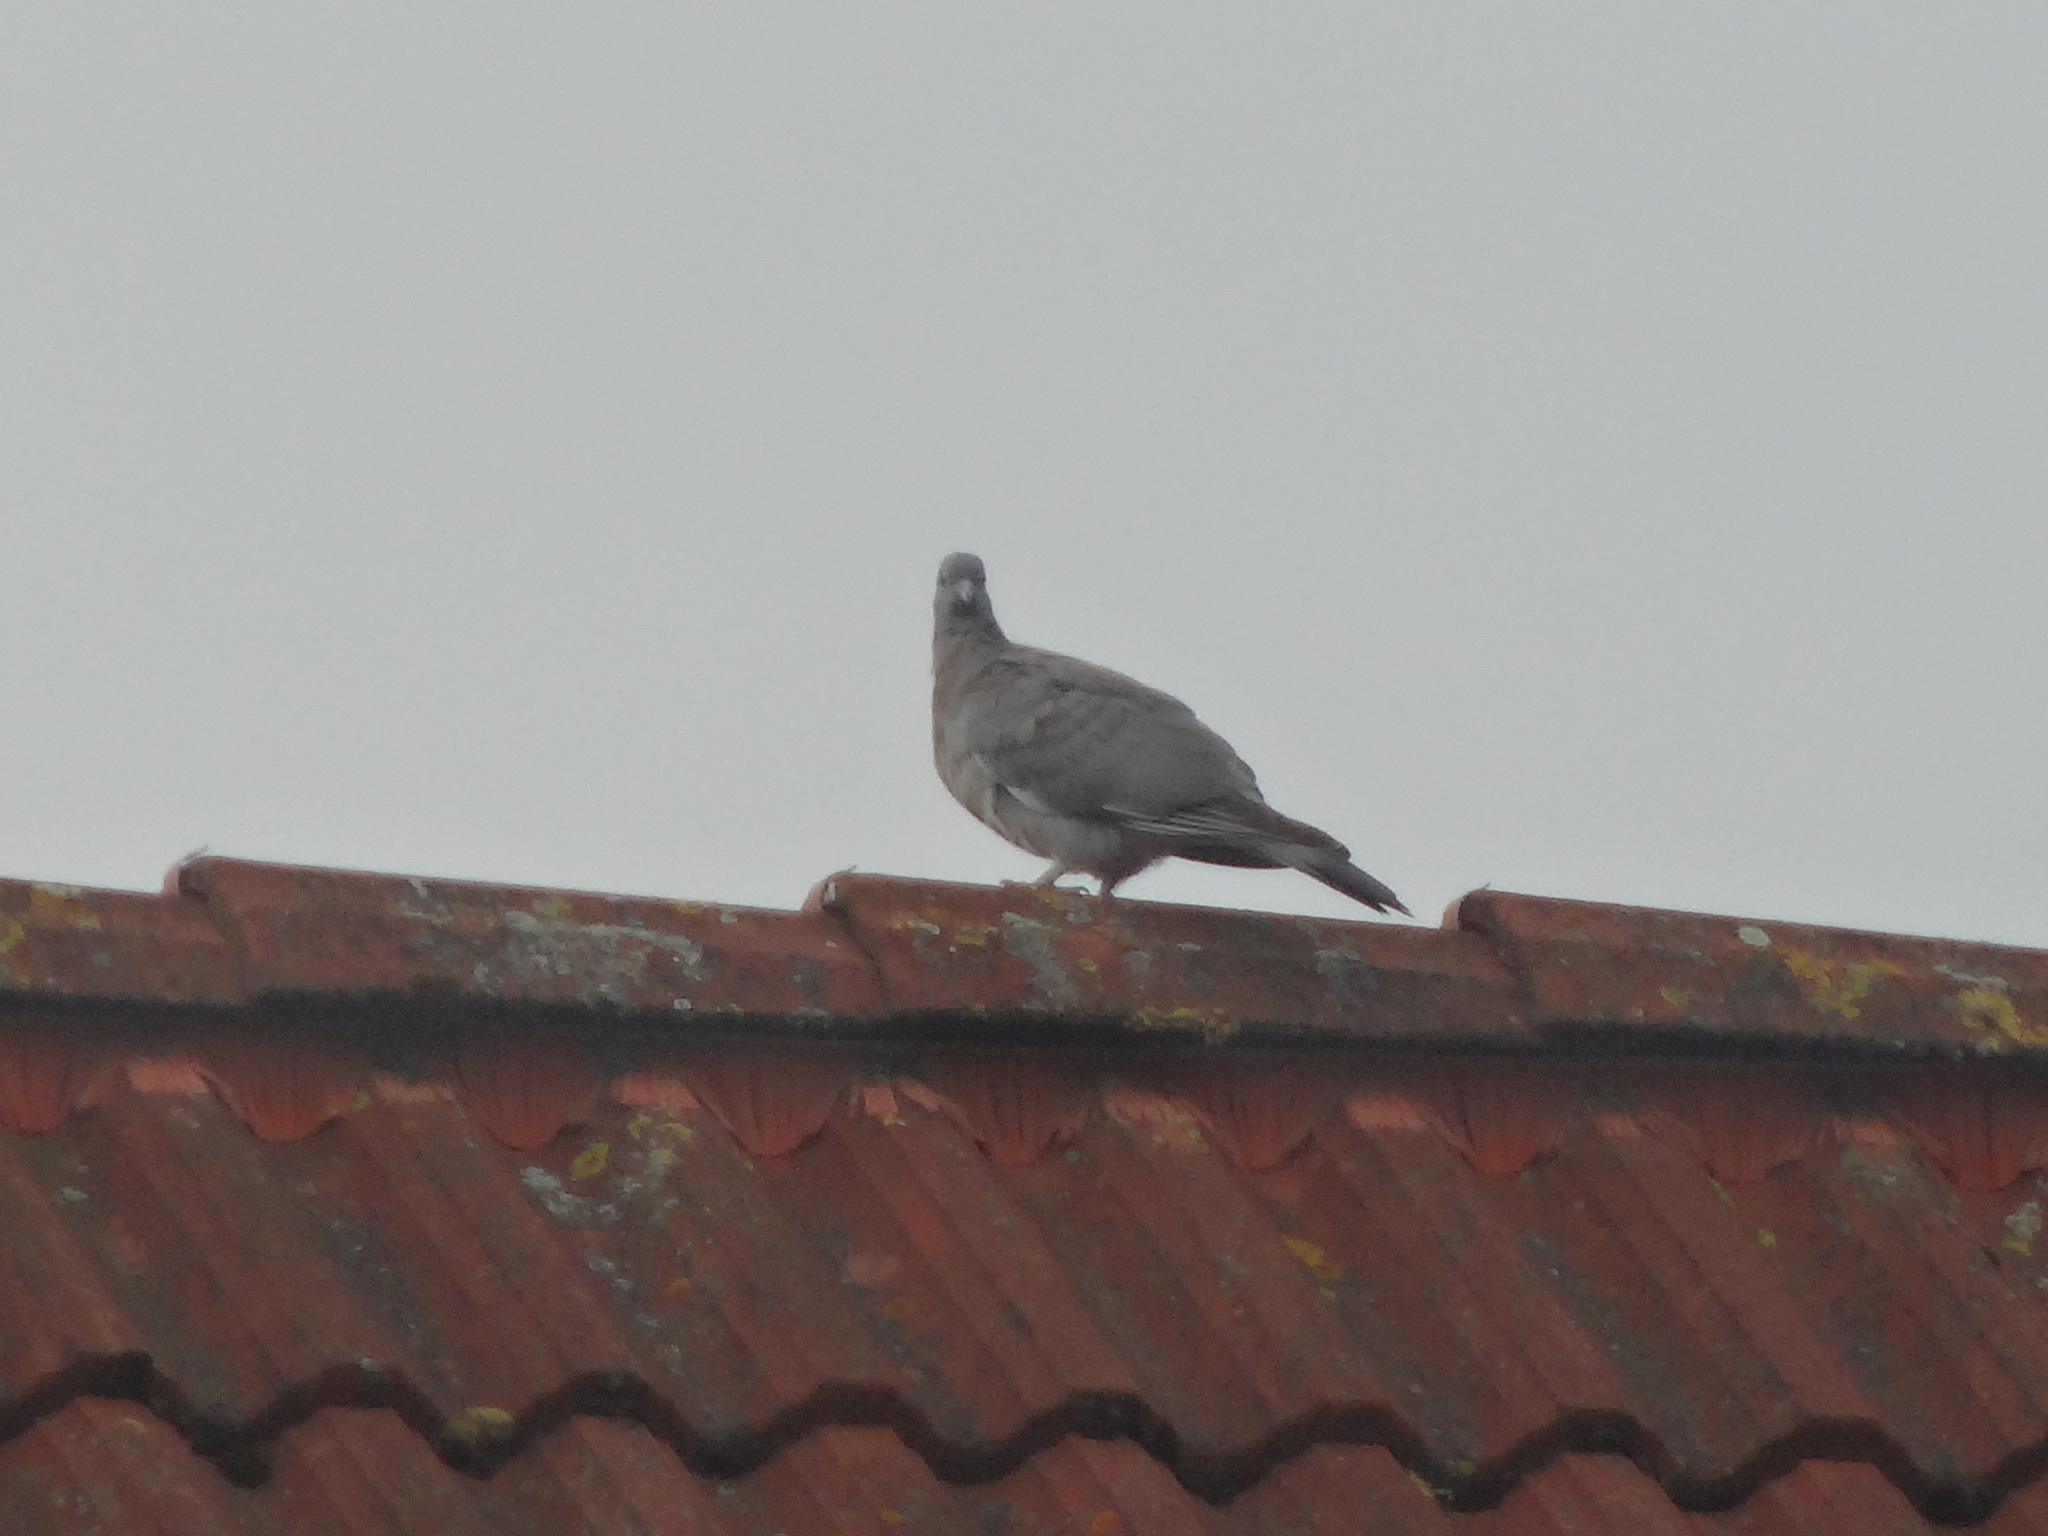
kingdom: Animalia
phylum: Chordata
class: Aves
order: Columbiformes
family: Columbidae
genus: Columba
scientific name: Columba palumbus
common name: Common wood pigeon
